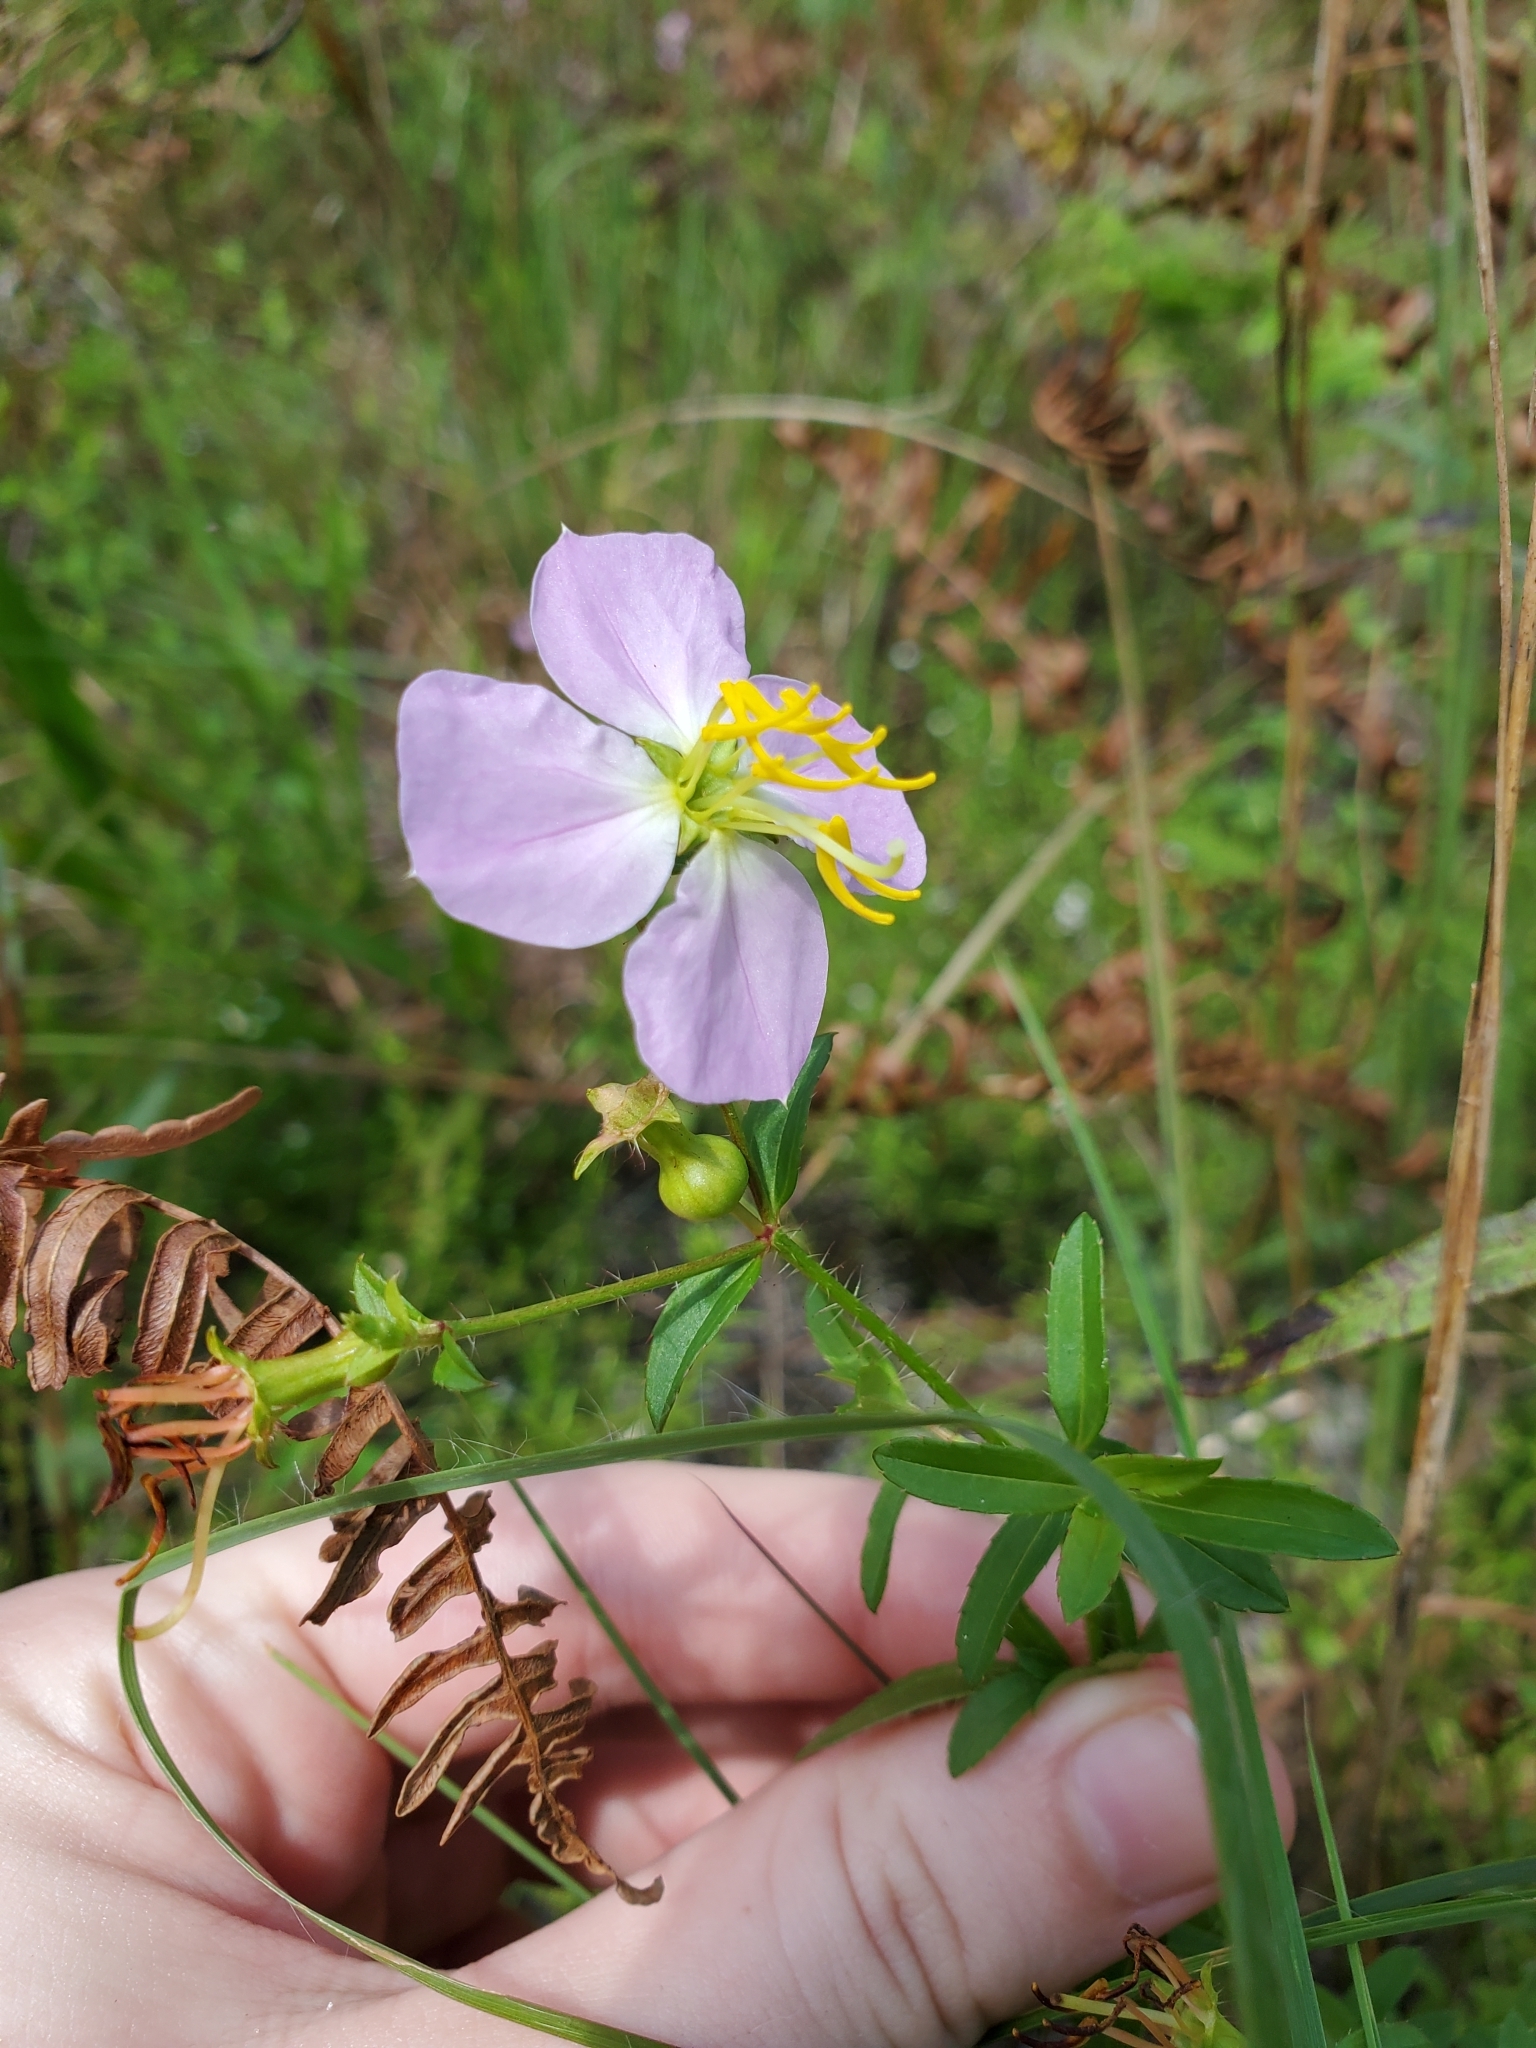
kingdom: Plantae
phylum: Tracheophyta
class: Magnoliopsida
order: Myrtales
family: Melastomataceae
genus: Rhexia
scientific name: Rhexia mariana
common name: Dull meadow-pitcher
